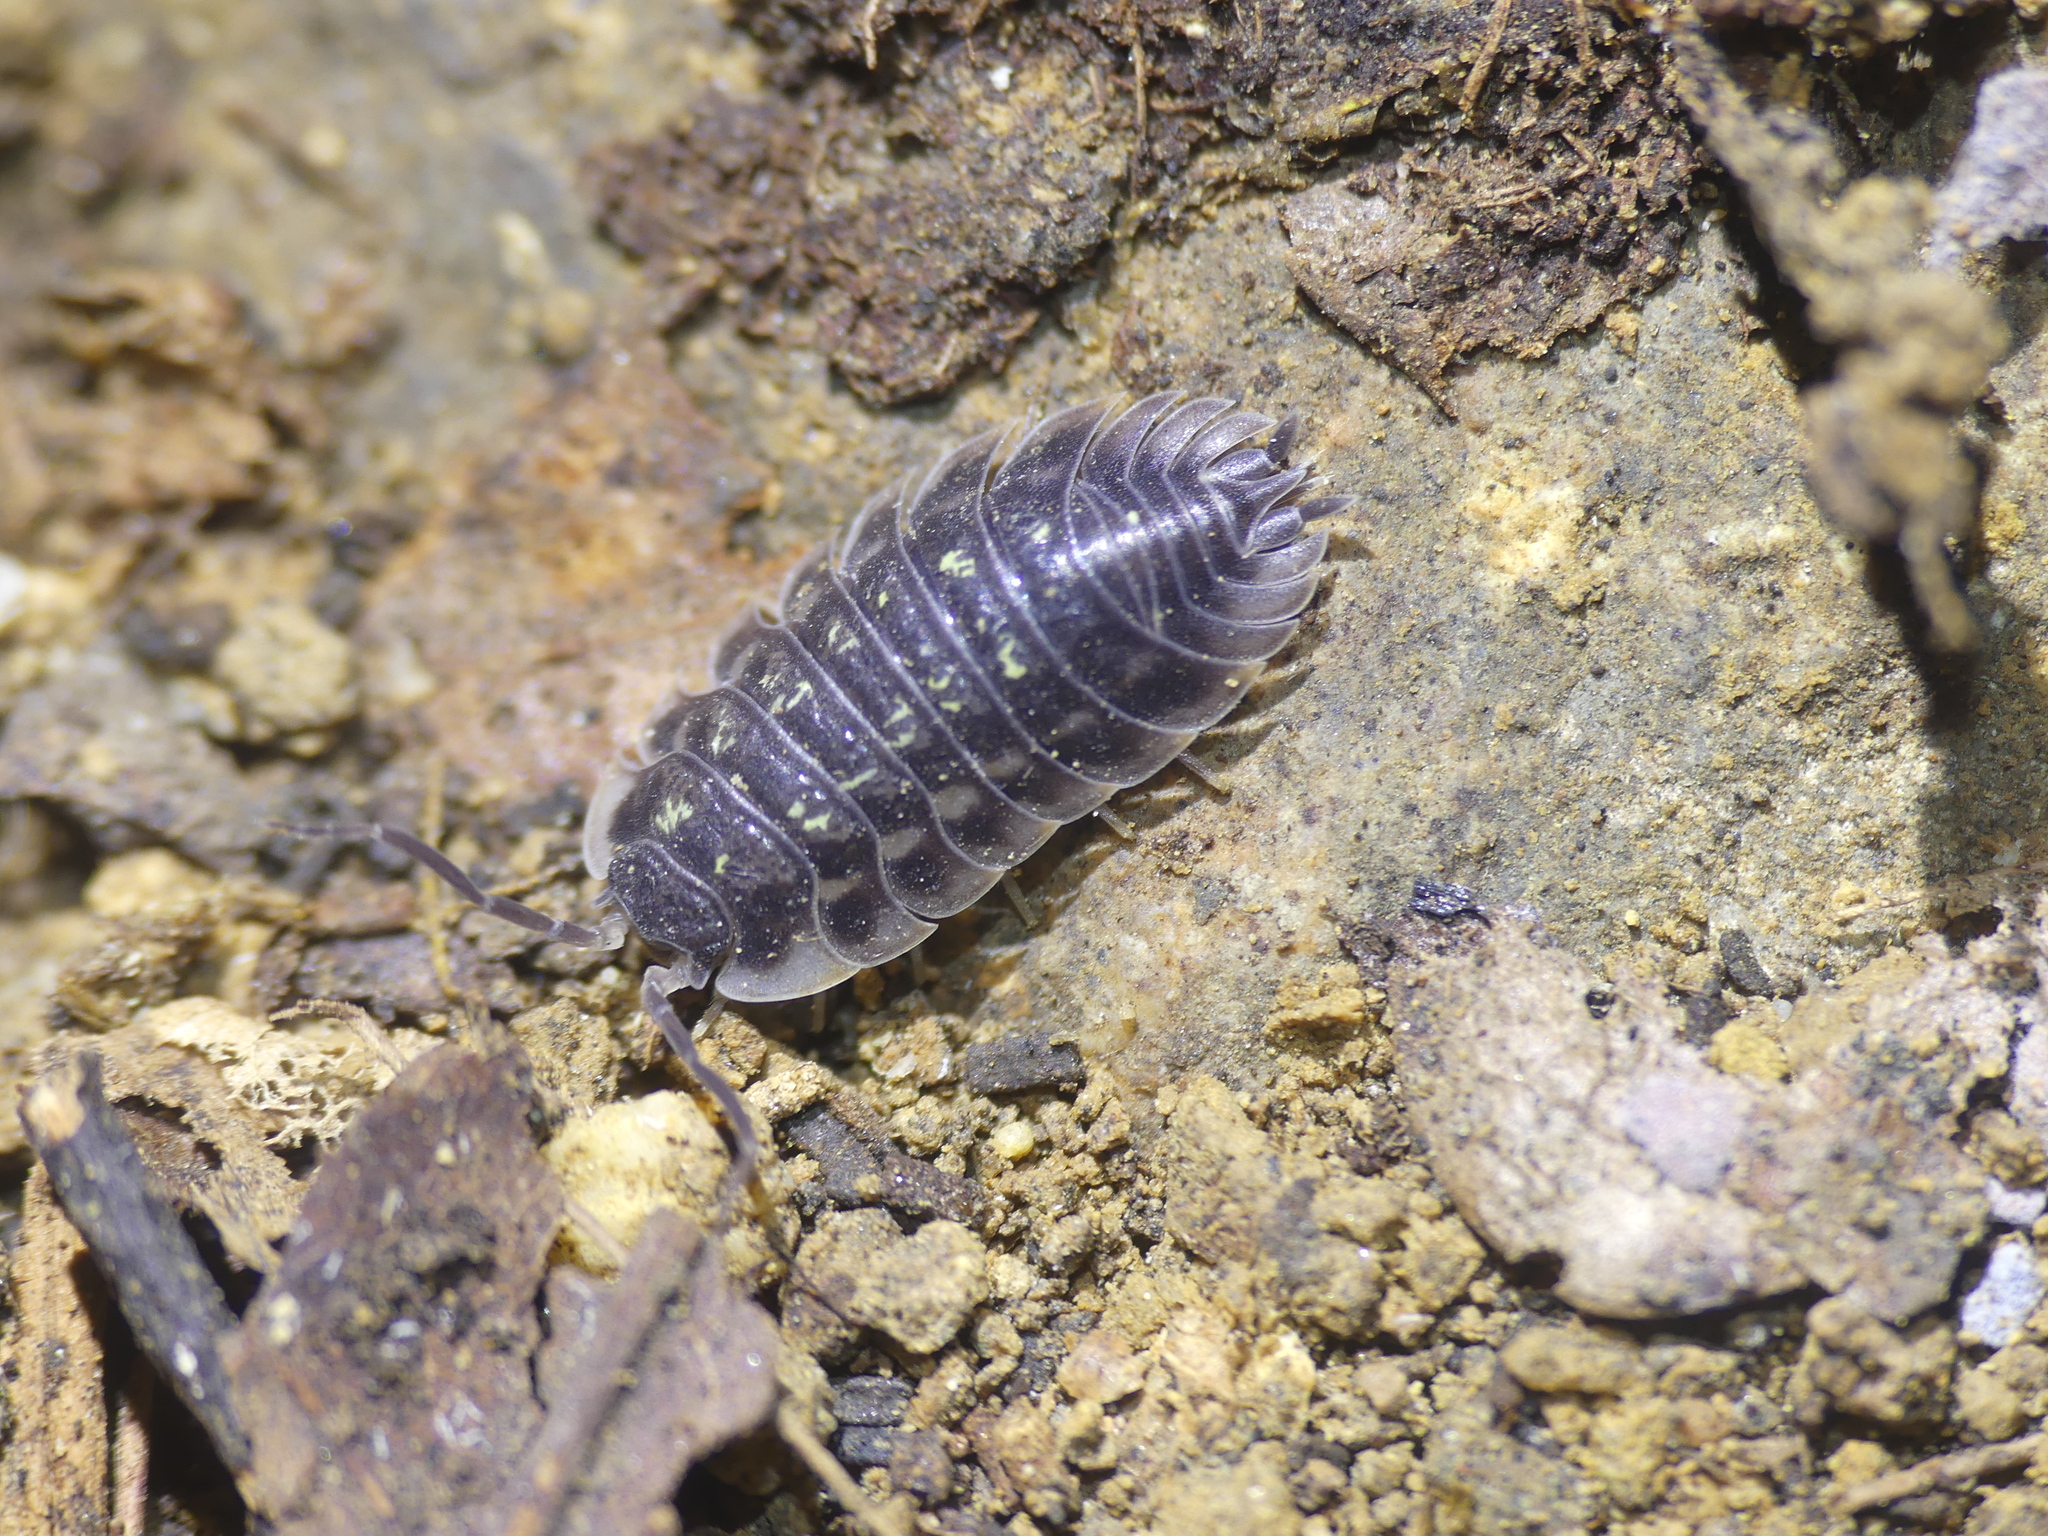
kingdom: Animalia
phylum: Arthropoda
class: Malacostraca
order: Isopoda
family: Oniscidae
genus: Oniscus
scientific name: Oniscus asellus
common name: Common shiny woodlouse
